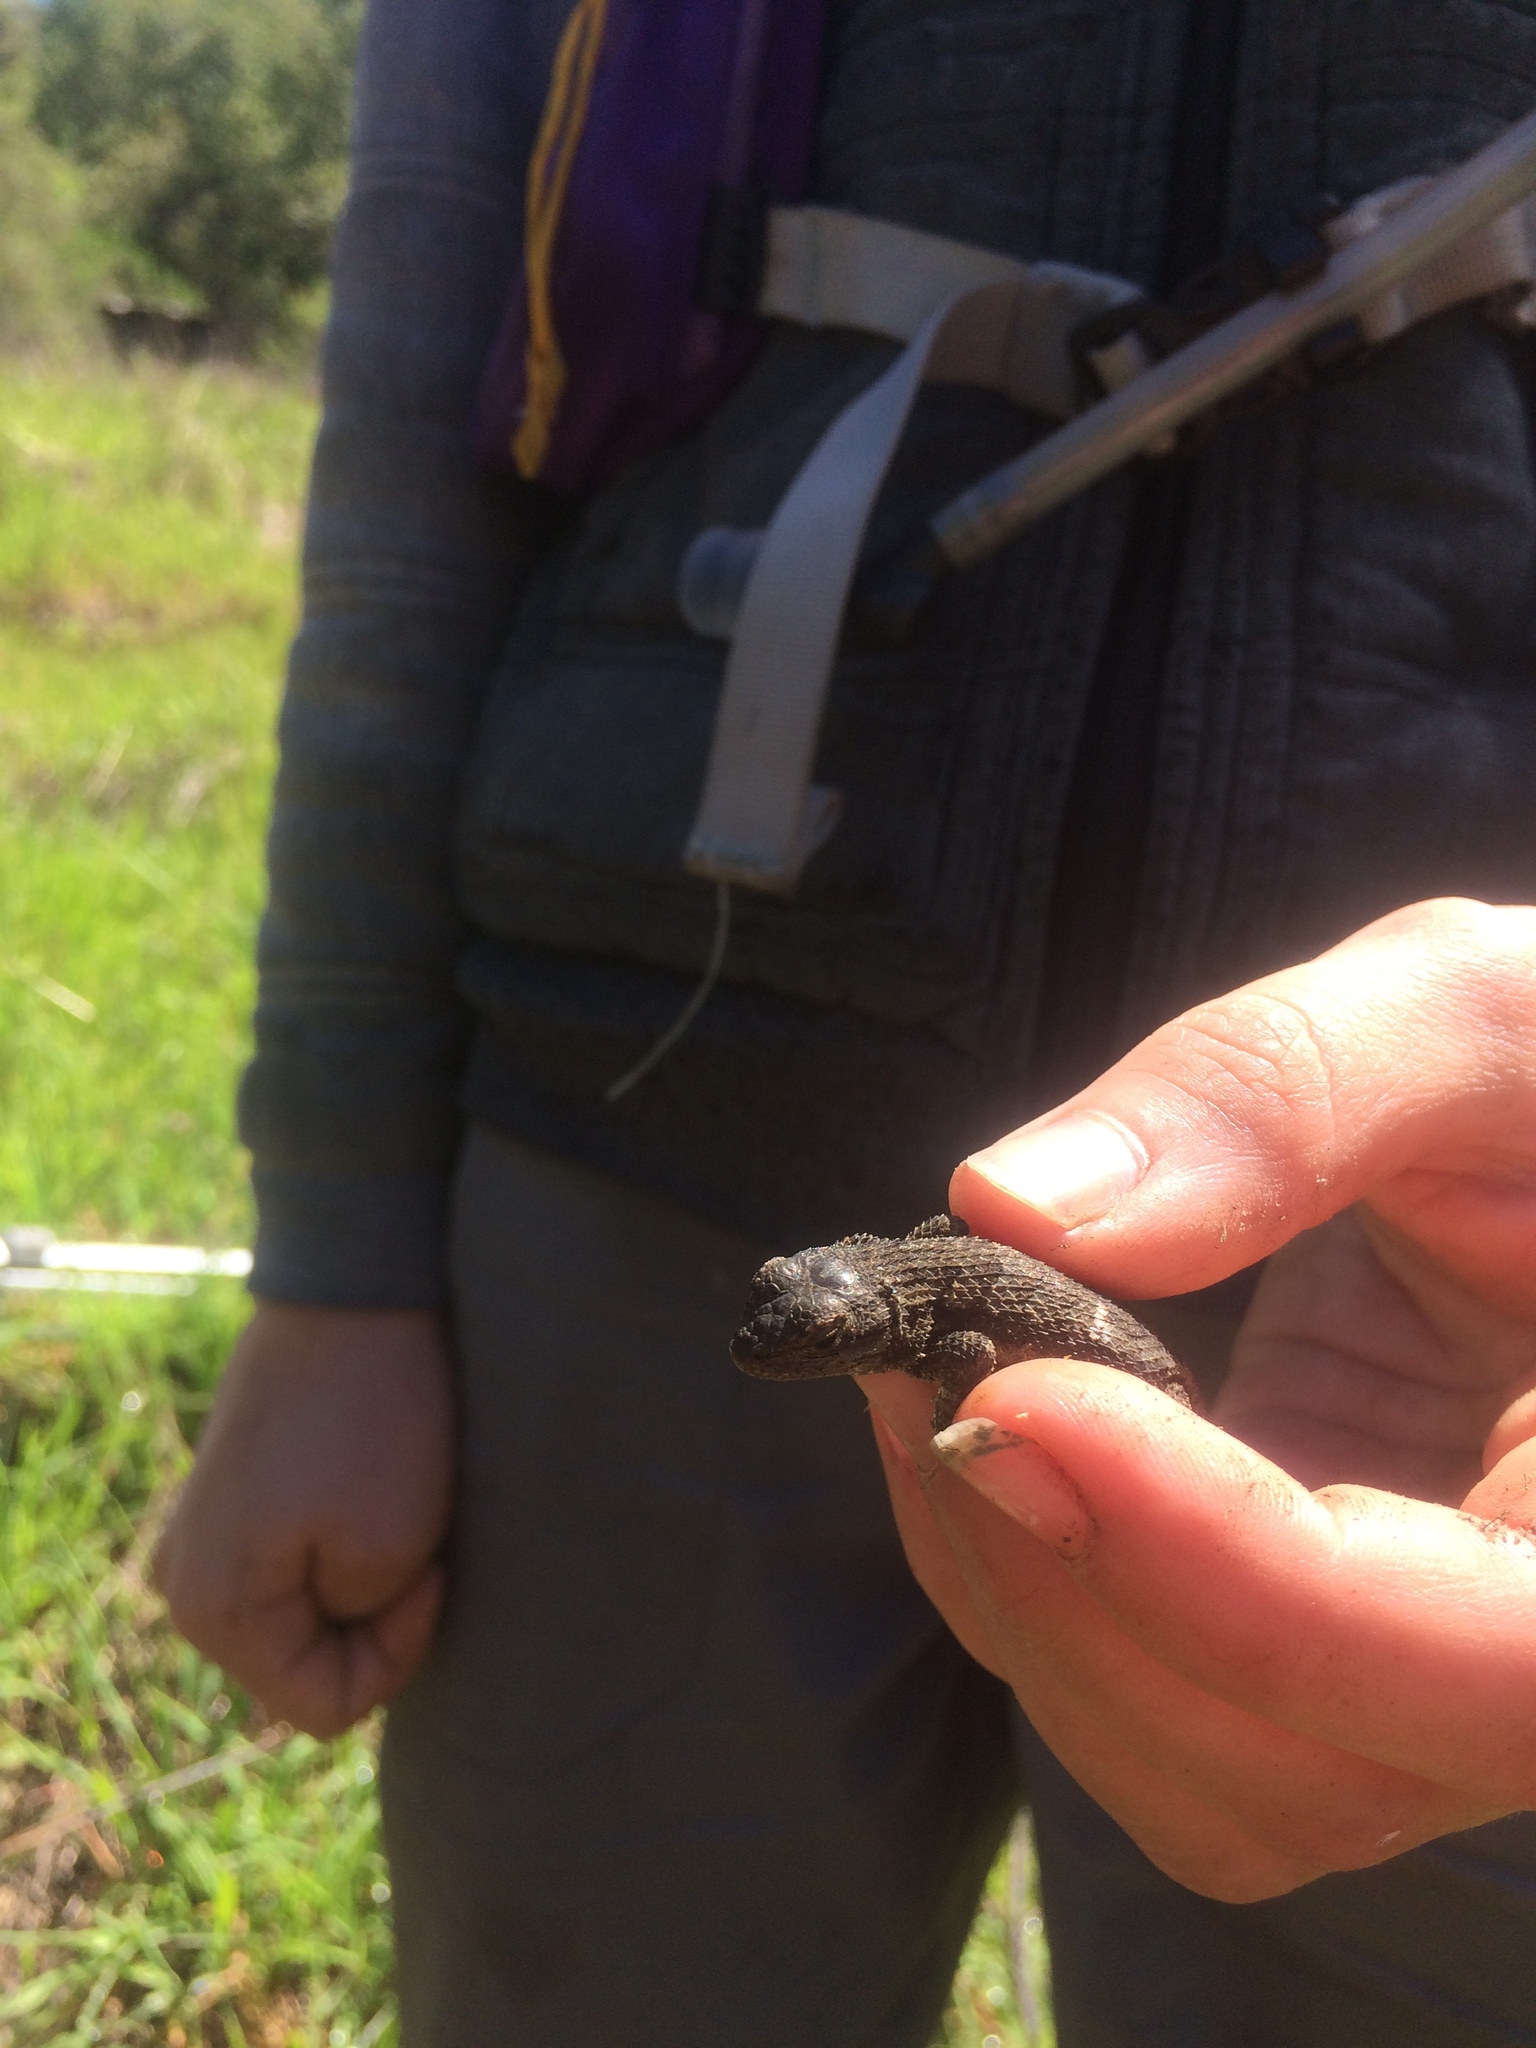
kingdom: Animalia
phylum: Chordata
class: Squamata
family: Phrynosomatidae
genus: Sceloporus
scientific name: Sceloporus occidentalis
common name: Western fence lizard
